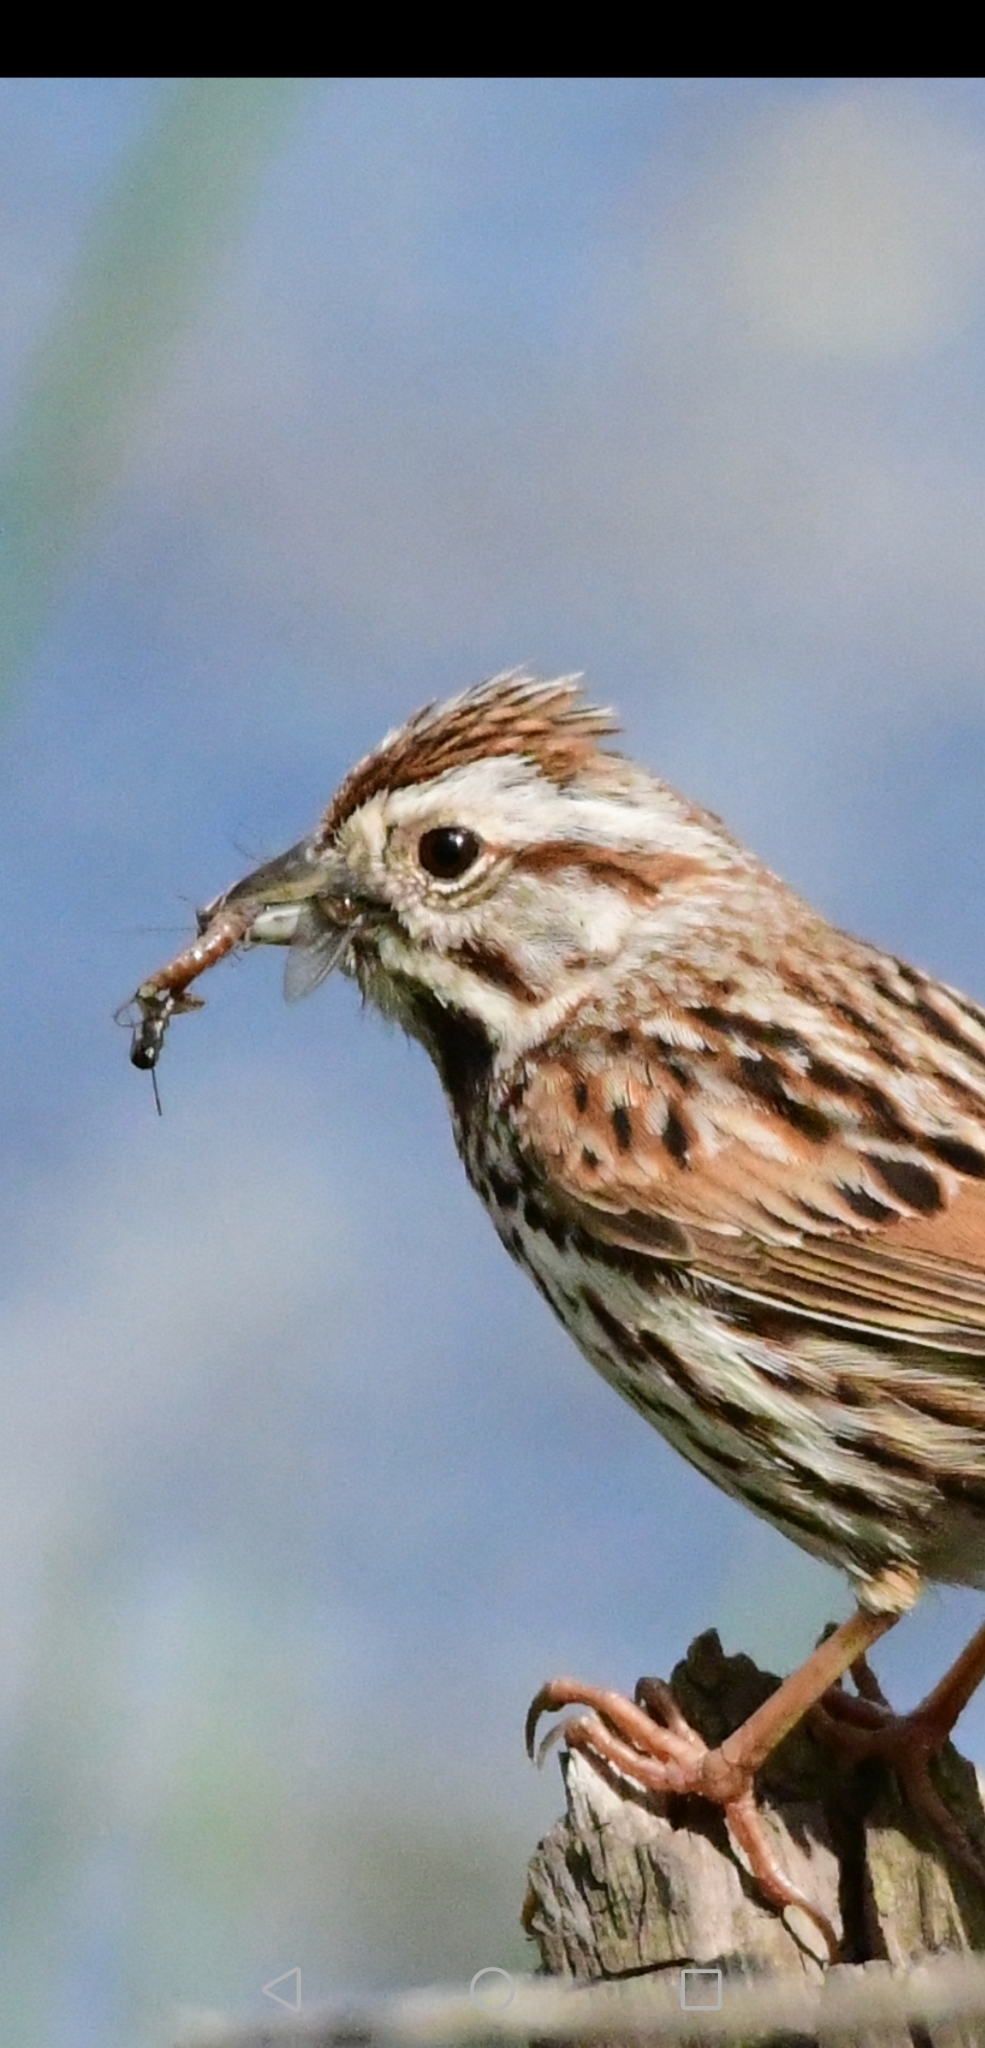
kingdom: Animalia
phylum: Chordata
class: Aves
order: Passeriformes
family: Passerellidae
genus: Melospiza
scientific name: Melospiza melodia
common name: Song sparrow
